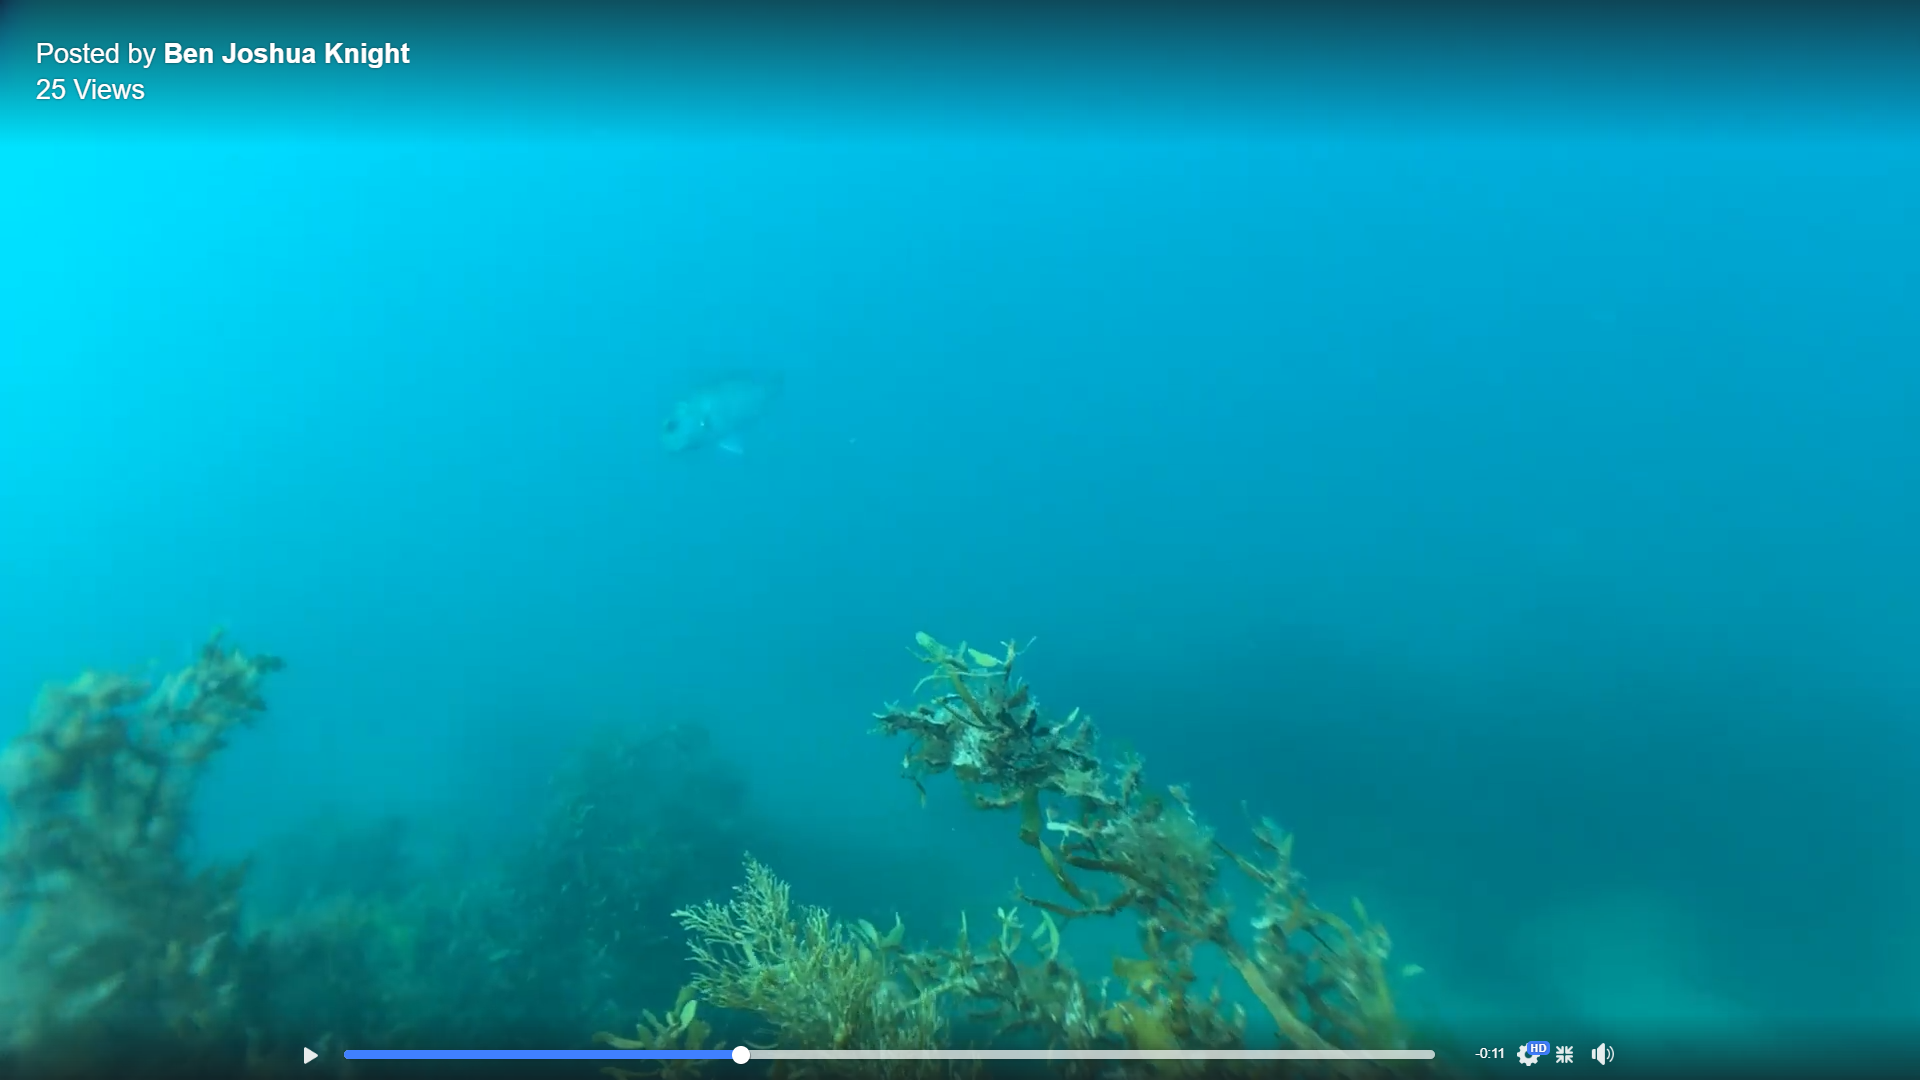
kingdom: Animalia
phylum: Chordata
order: Perciformes
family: Sparidae
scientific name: Sparidae
